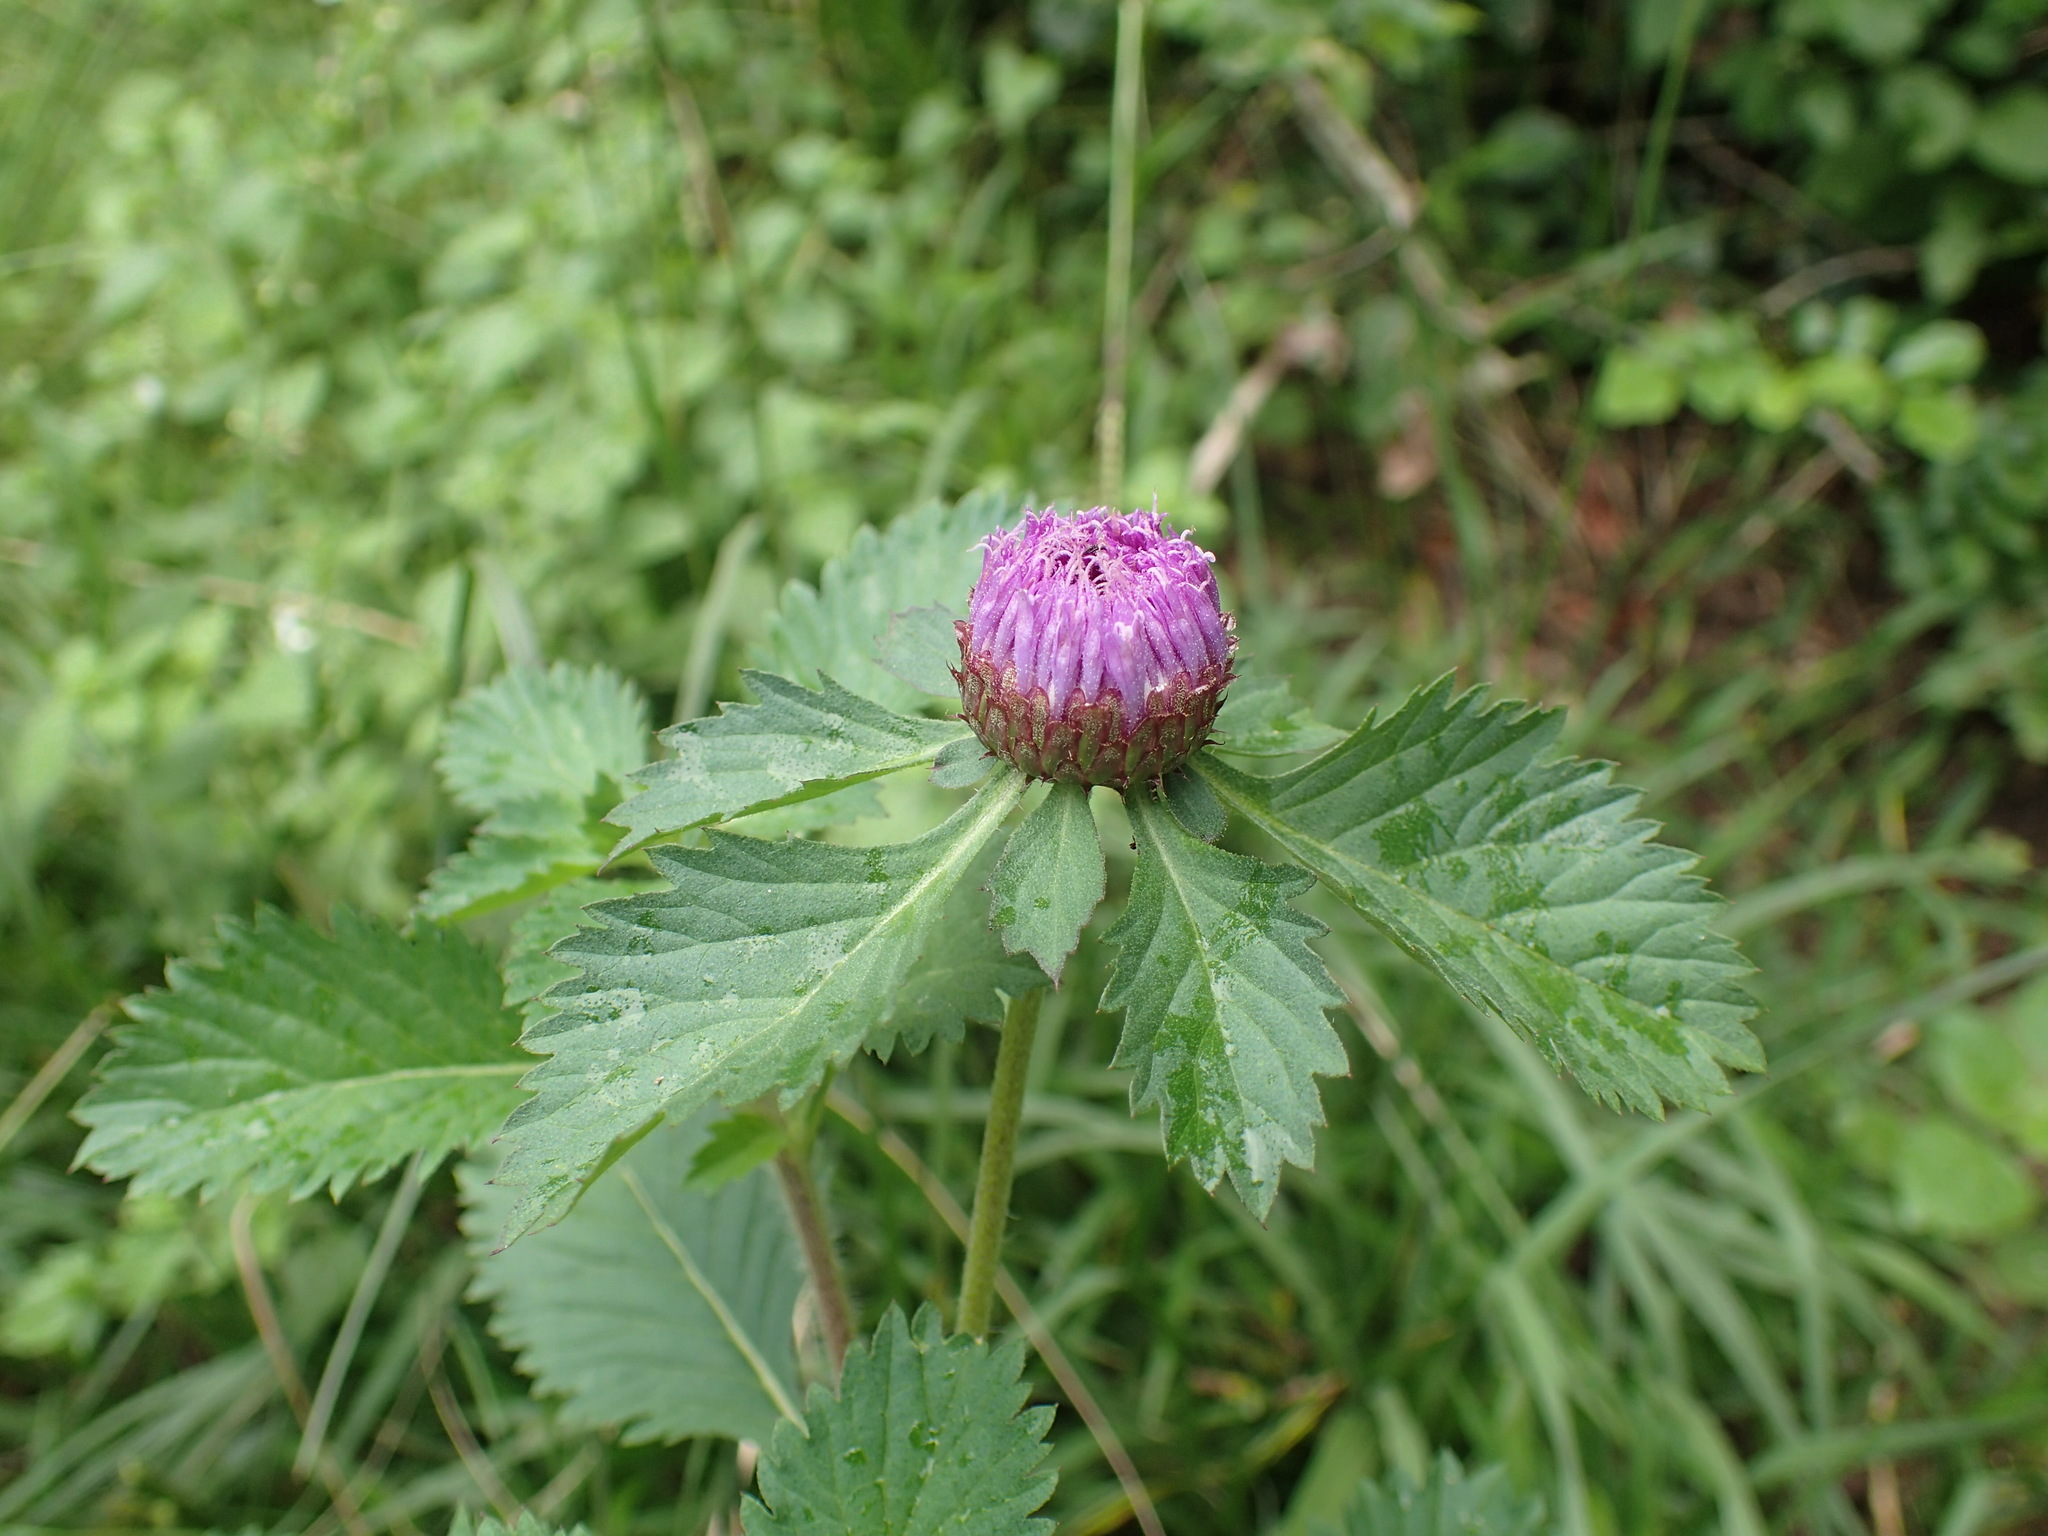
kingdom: Plantae
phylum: Tracheophyta
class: Magnoliopsida
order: Asterales
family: Asteraceae
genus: Centratherum
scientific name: Centratherum punctatum
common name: Larkdaisy
